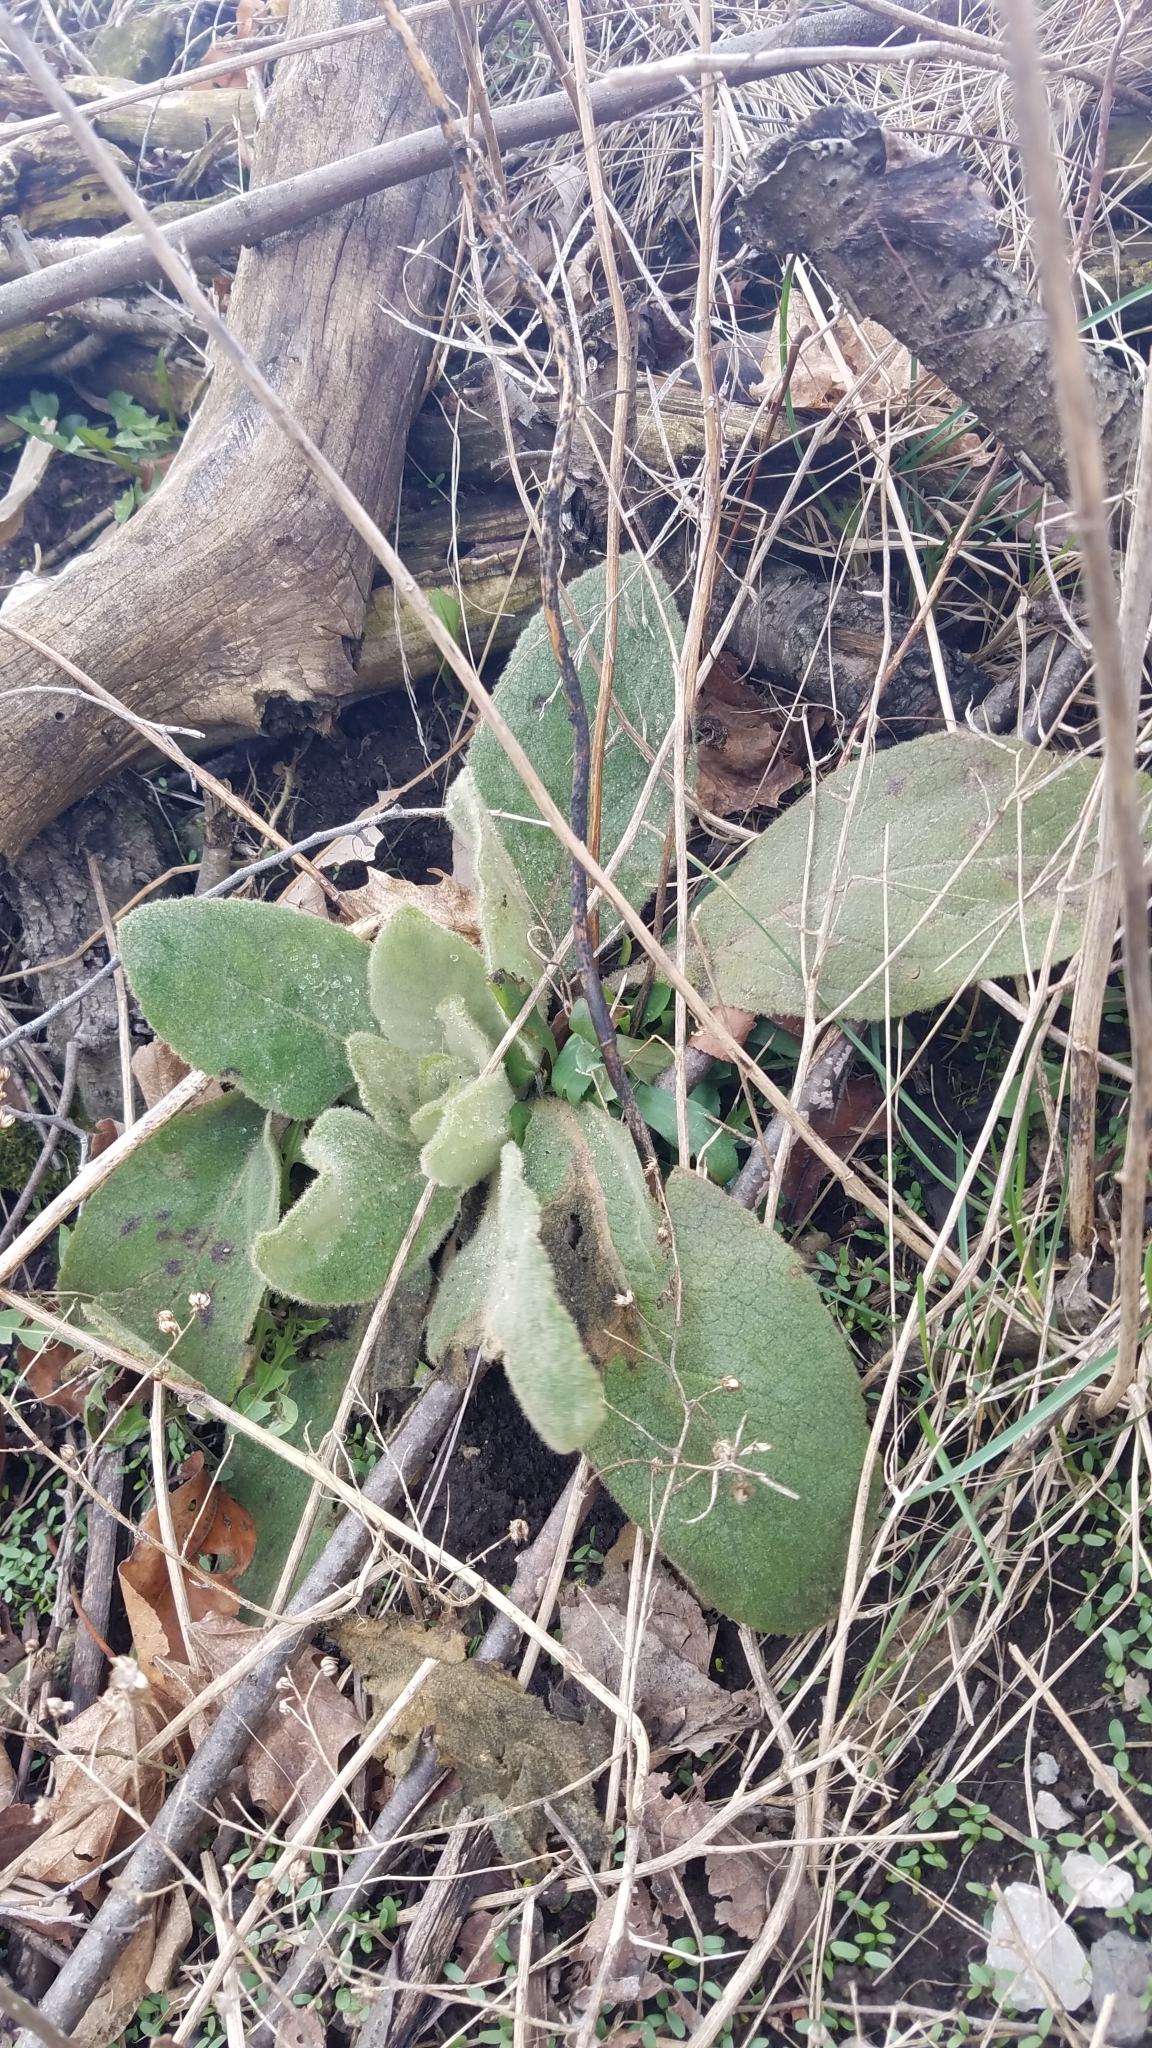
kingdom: Plantae
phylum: Tracheophyta
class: Magnoliopsida
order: Lamiales
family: Scrophulariaceae
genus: Verbascum
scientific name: Verbascum thapsus
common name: Common mullein
